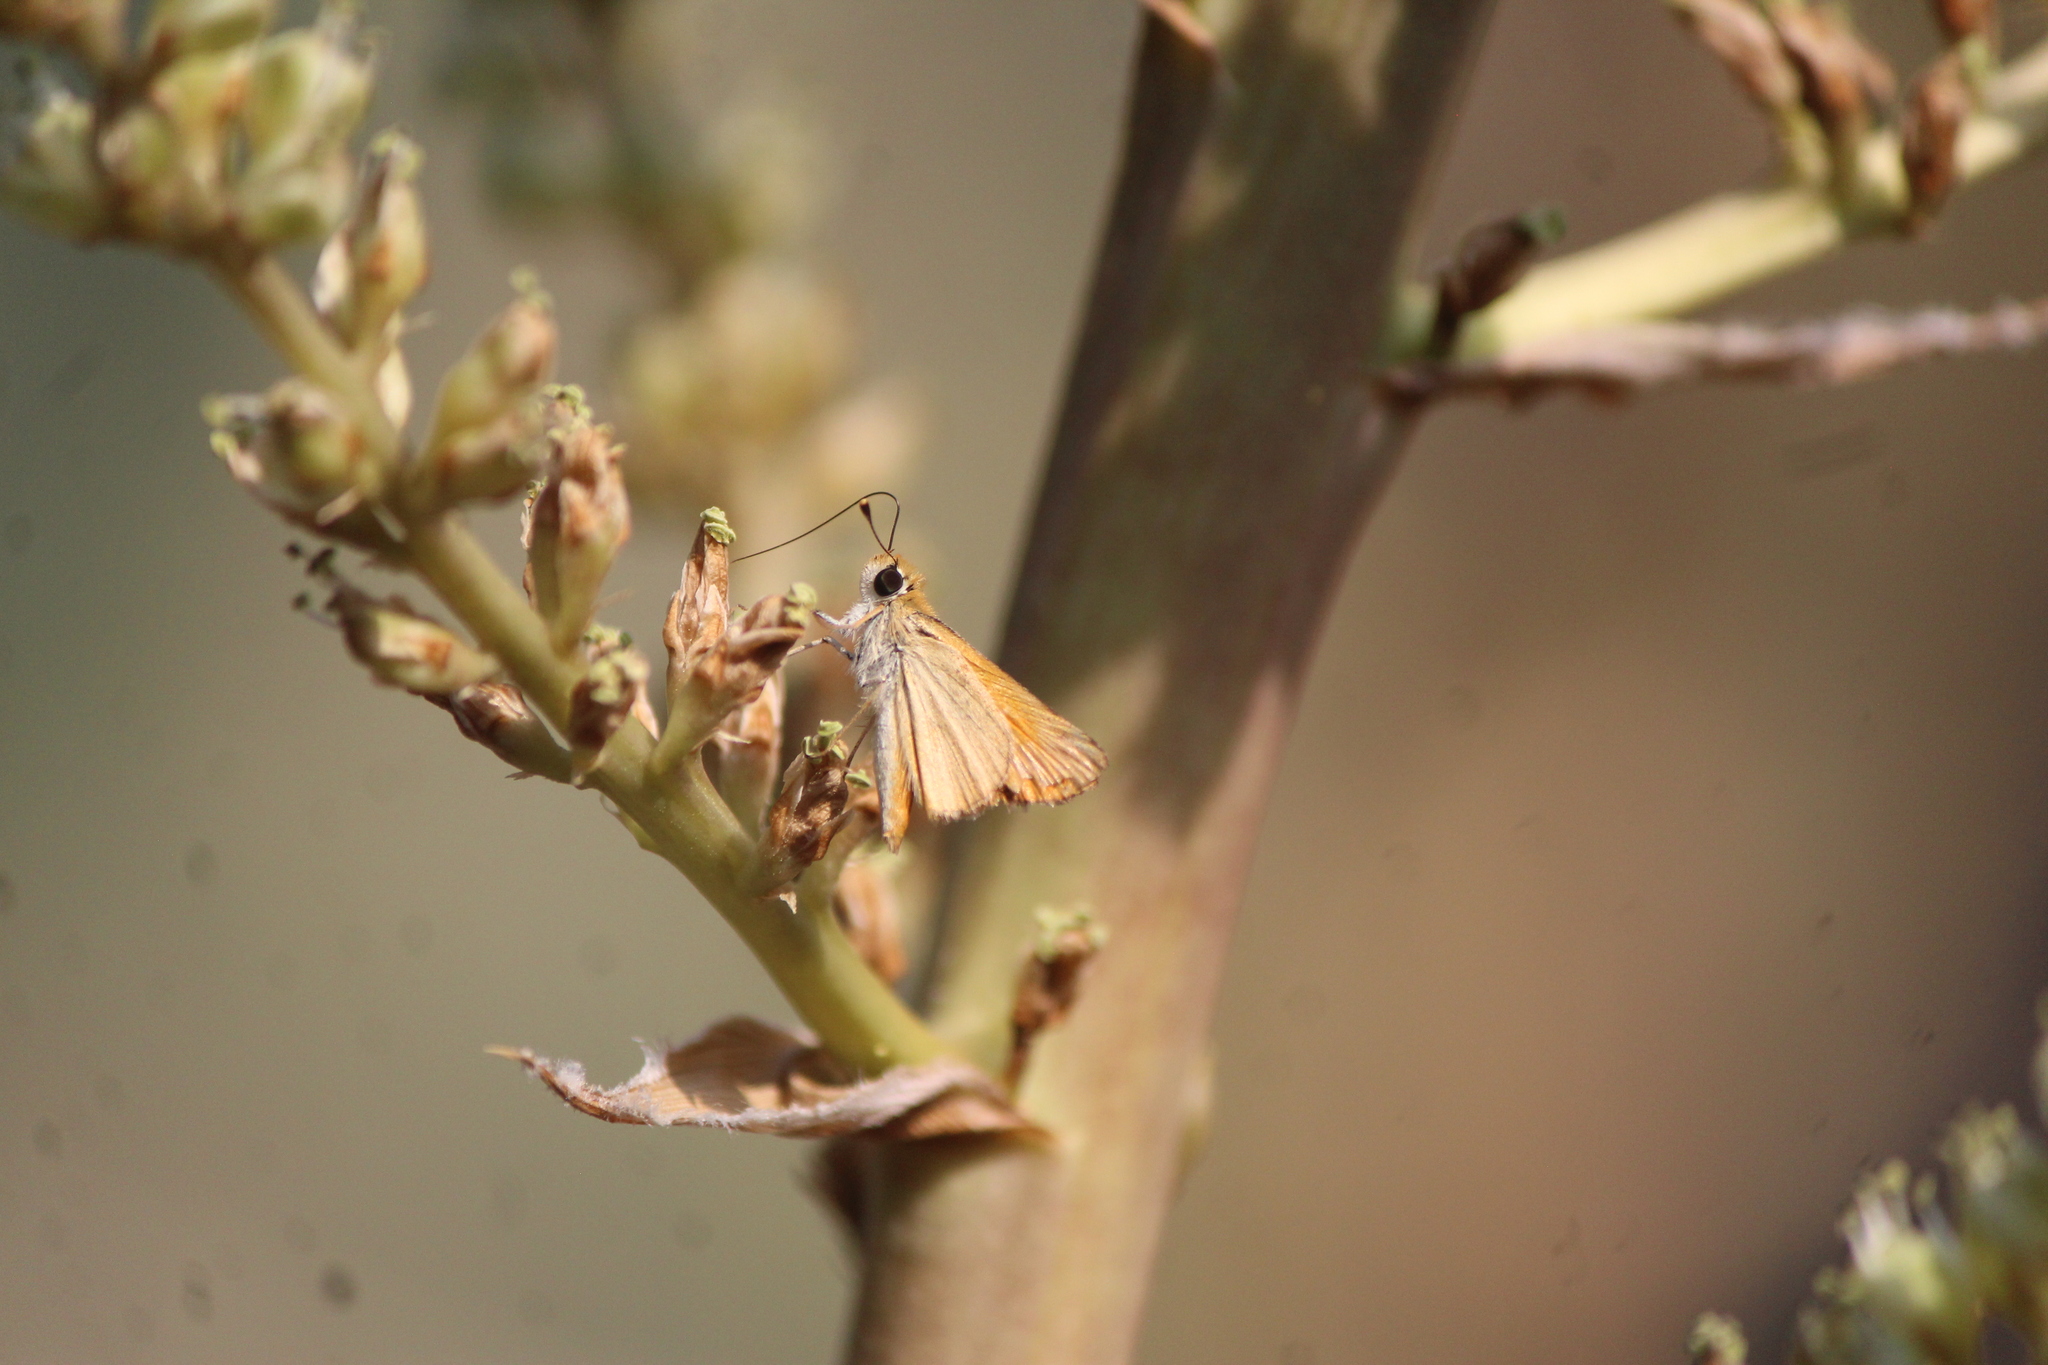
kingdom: Animalia
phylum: Arthropoda
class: Insecta
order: Lepidoptera
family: Hesperiidae
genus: Copaeodes
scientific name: Copaeodes aurantiaca
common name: Orange skipperling
